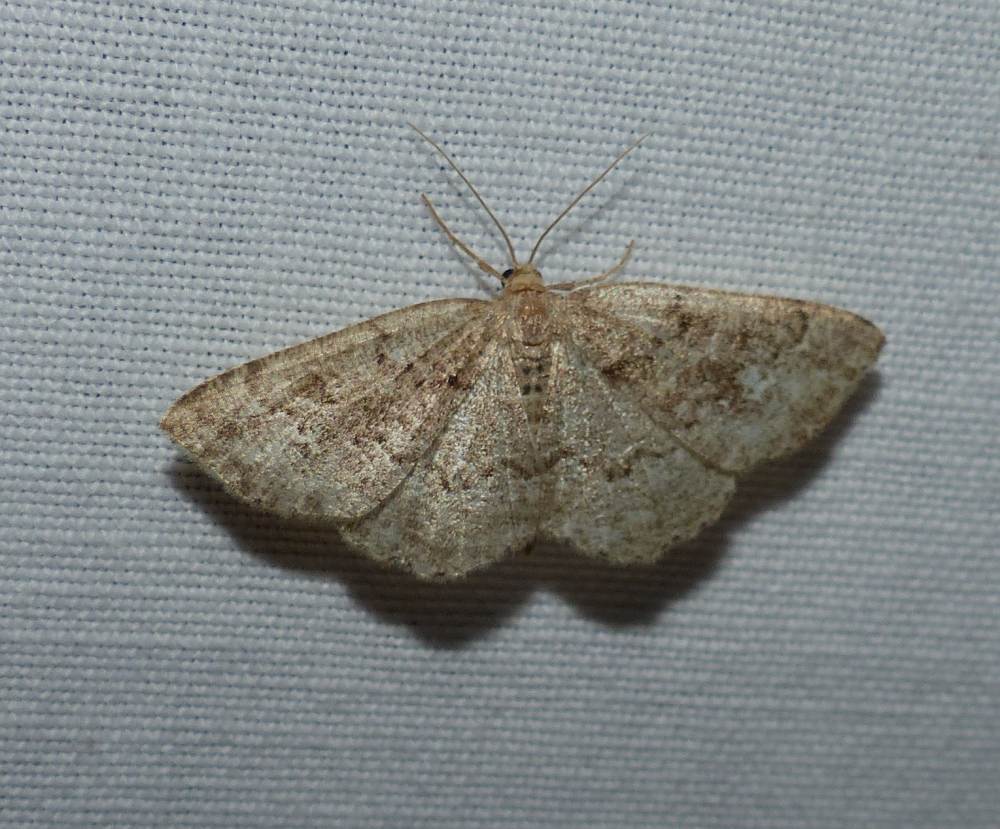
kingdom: Animalia
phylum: Arthropoda
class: Insecta
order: Lepidoptera
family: Geometridae
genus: Homochlodes
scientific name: Homochlodes fritillaria
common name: Pale homochlodes
